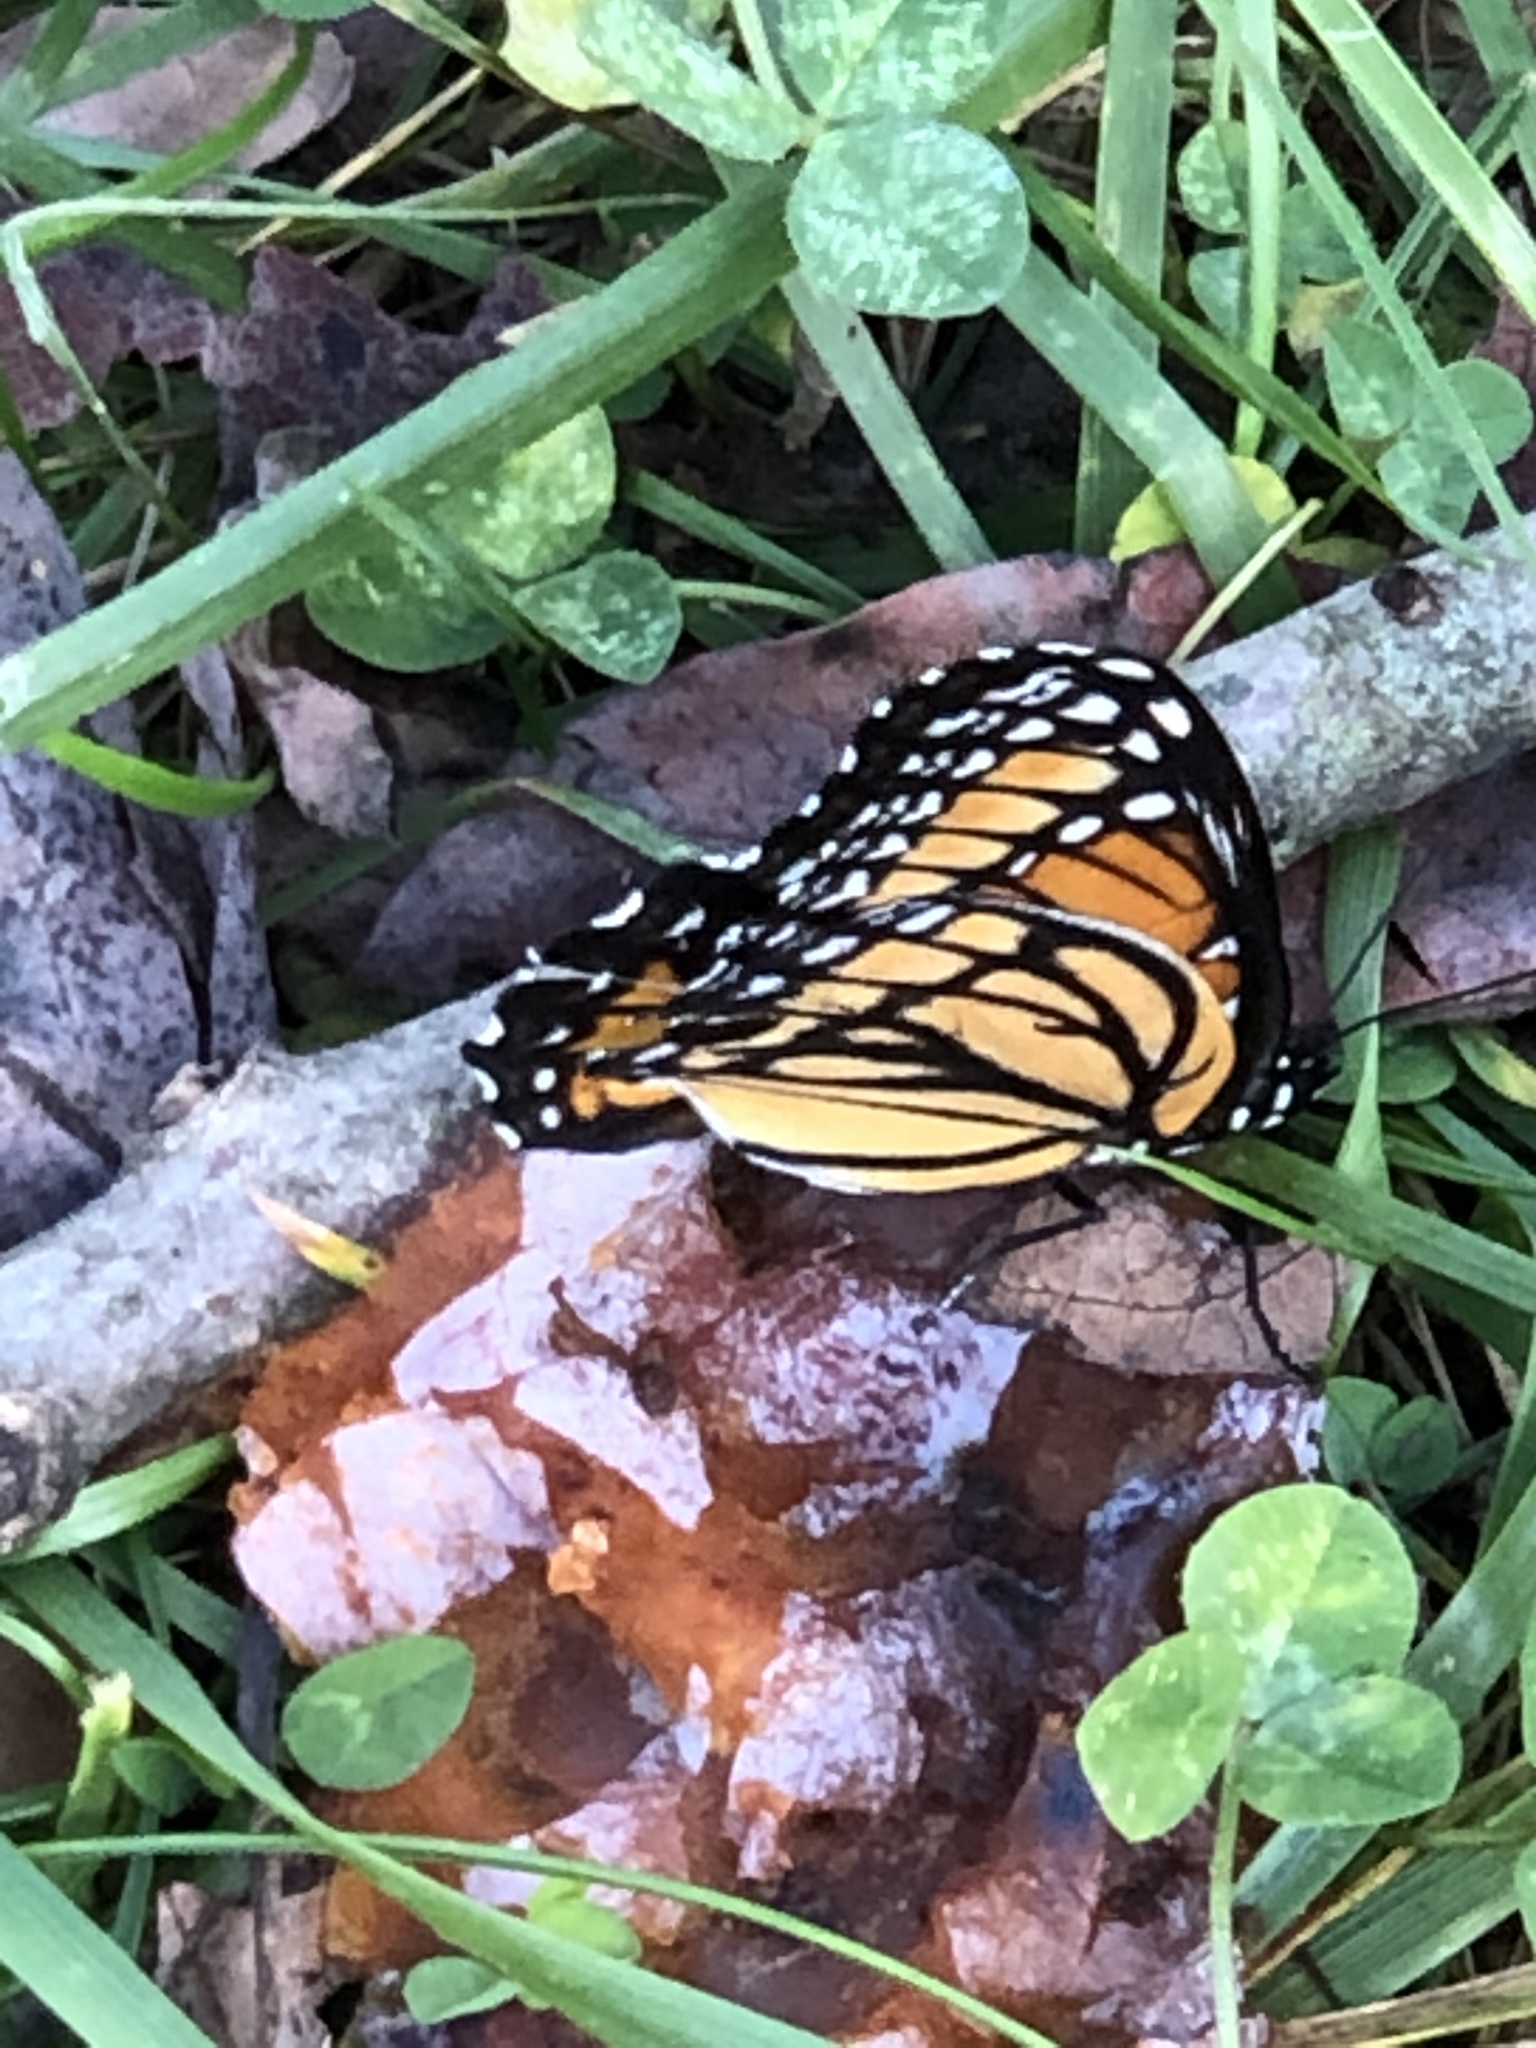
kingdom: Animalia
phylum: Arthropoda
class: Insecta
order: Lepidoptera
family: Nymphalidae
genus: Limenitis
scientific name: Limenitis archippus
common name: Viceroy
